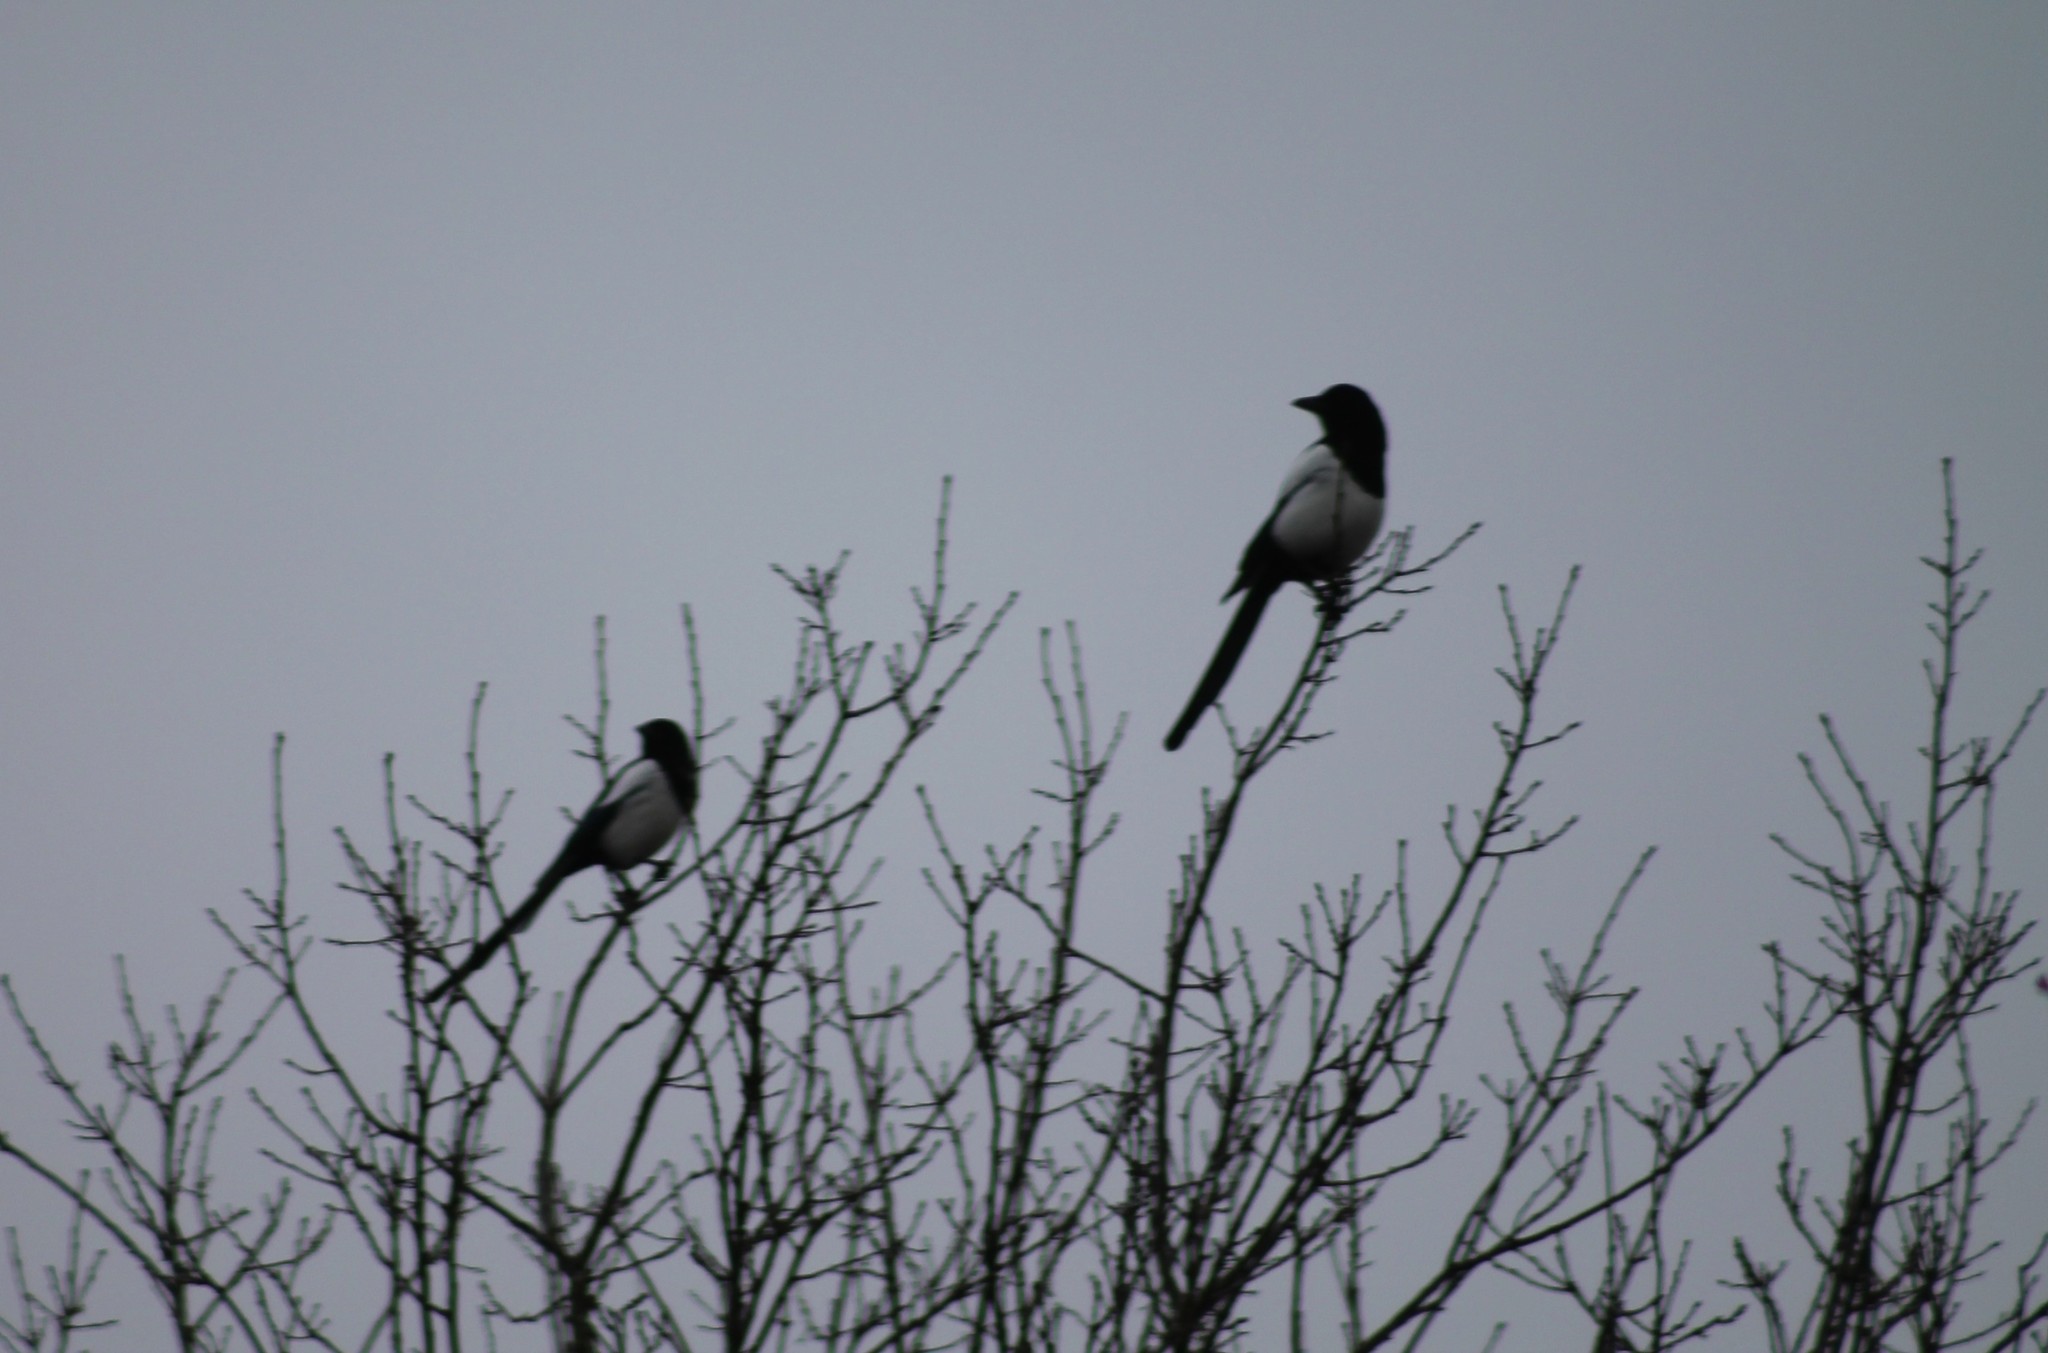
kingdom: Animalia
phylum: Chordata
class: Aves
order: Passeriformes
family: Corvidae
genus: Pica
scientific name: Pica pica
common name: Eurasian magpie
